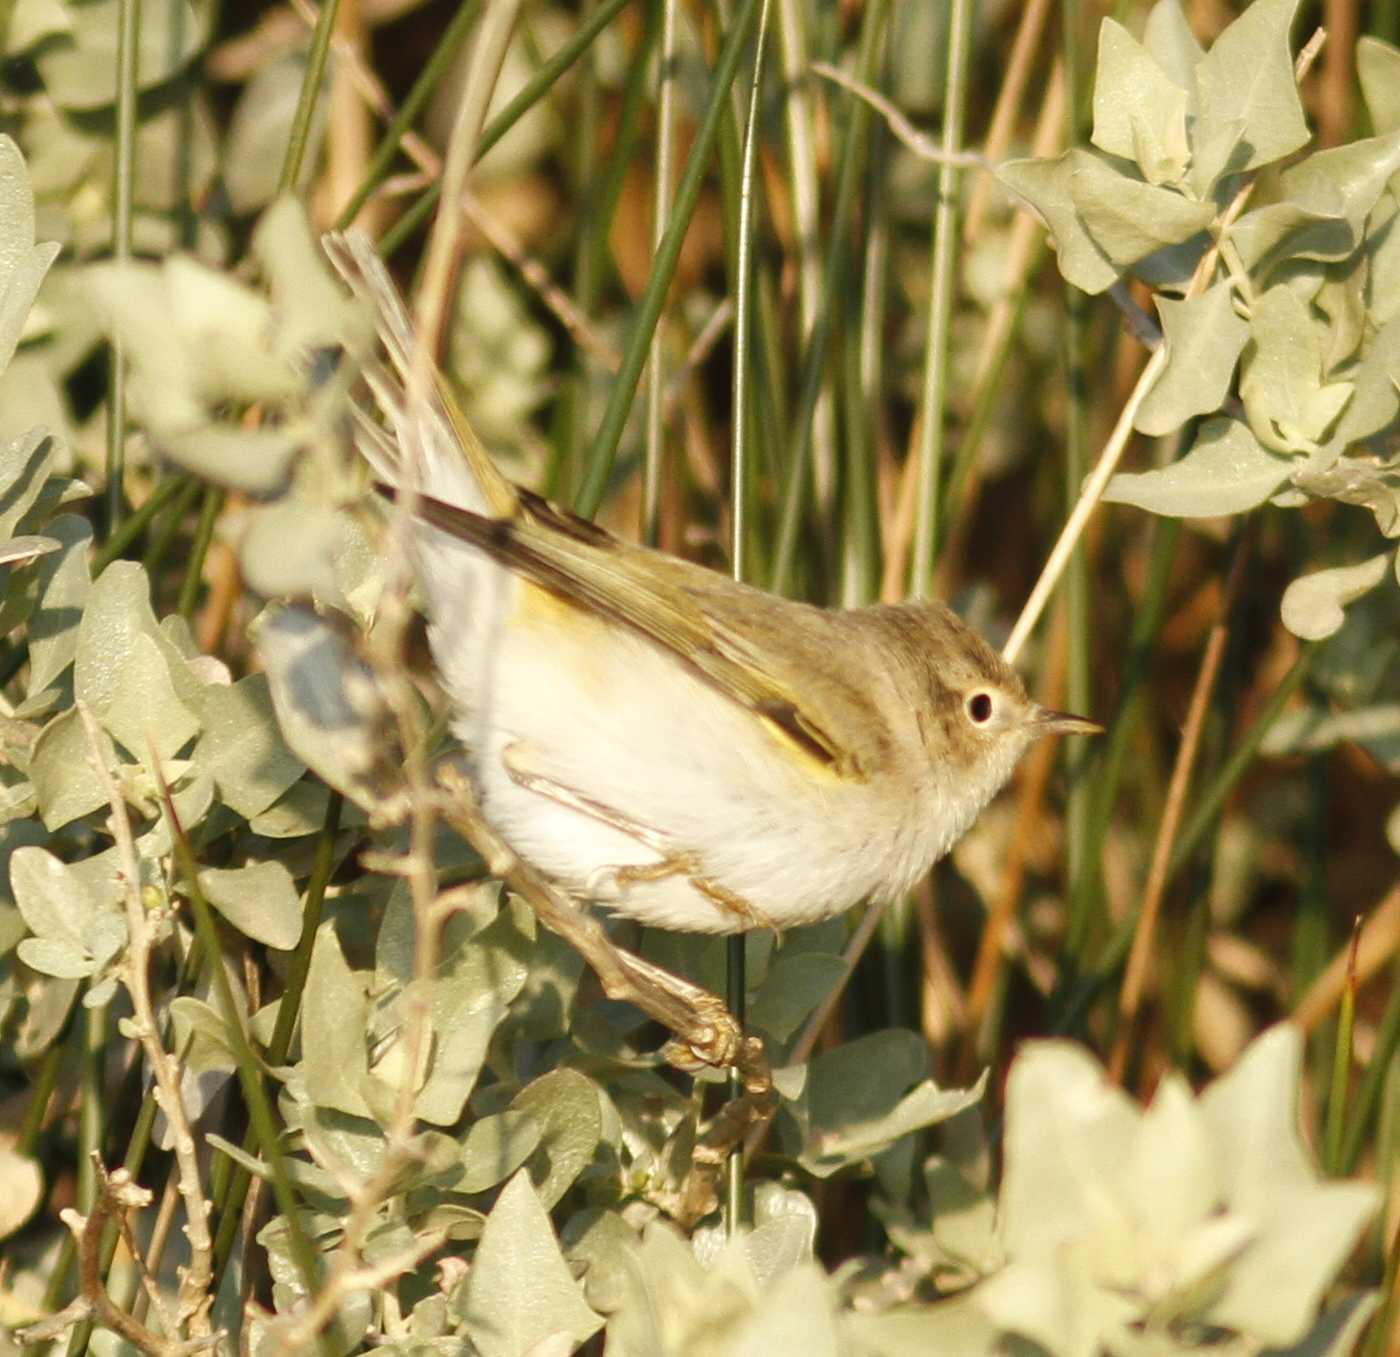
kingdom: Animalia
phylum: Chordata
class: Aves
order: Passeriformes
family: Phylloscopidae
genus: Phylloscopus
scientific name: Phylloscopus bonelli
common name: Western bonelli's warbler
